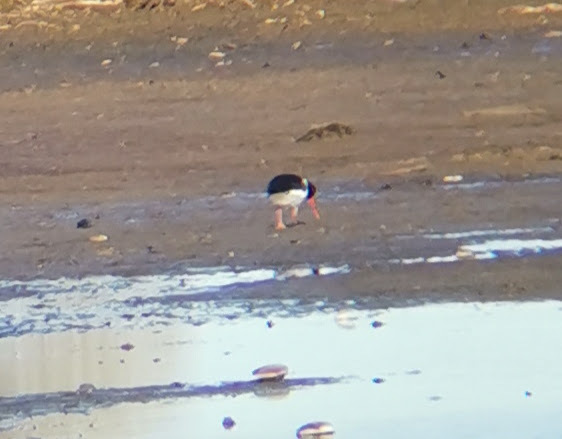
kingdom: Animalia
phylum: Chordata
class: Aves
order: Charadriiformes
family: Haematopodidae
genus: Haematopus
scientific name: Haematopus ostralegus
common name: Eurasian oystercatcher
